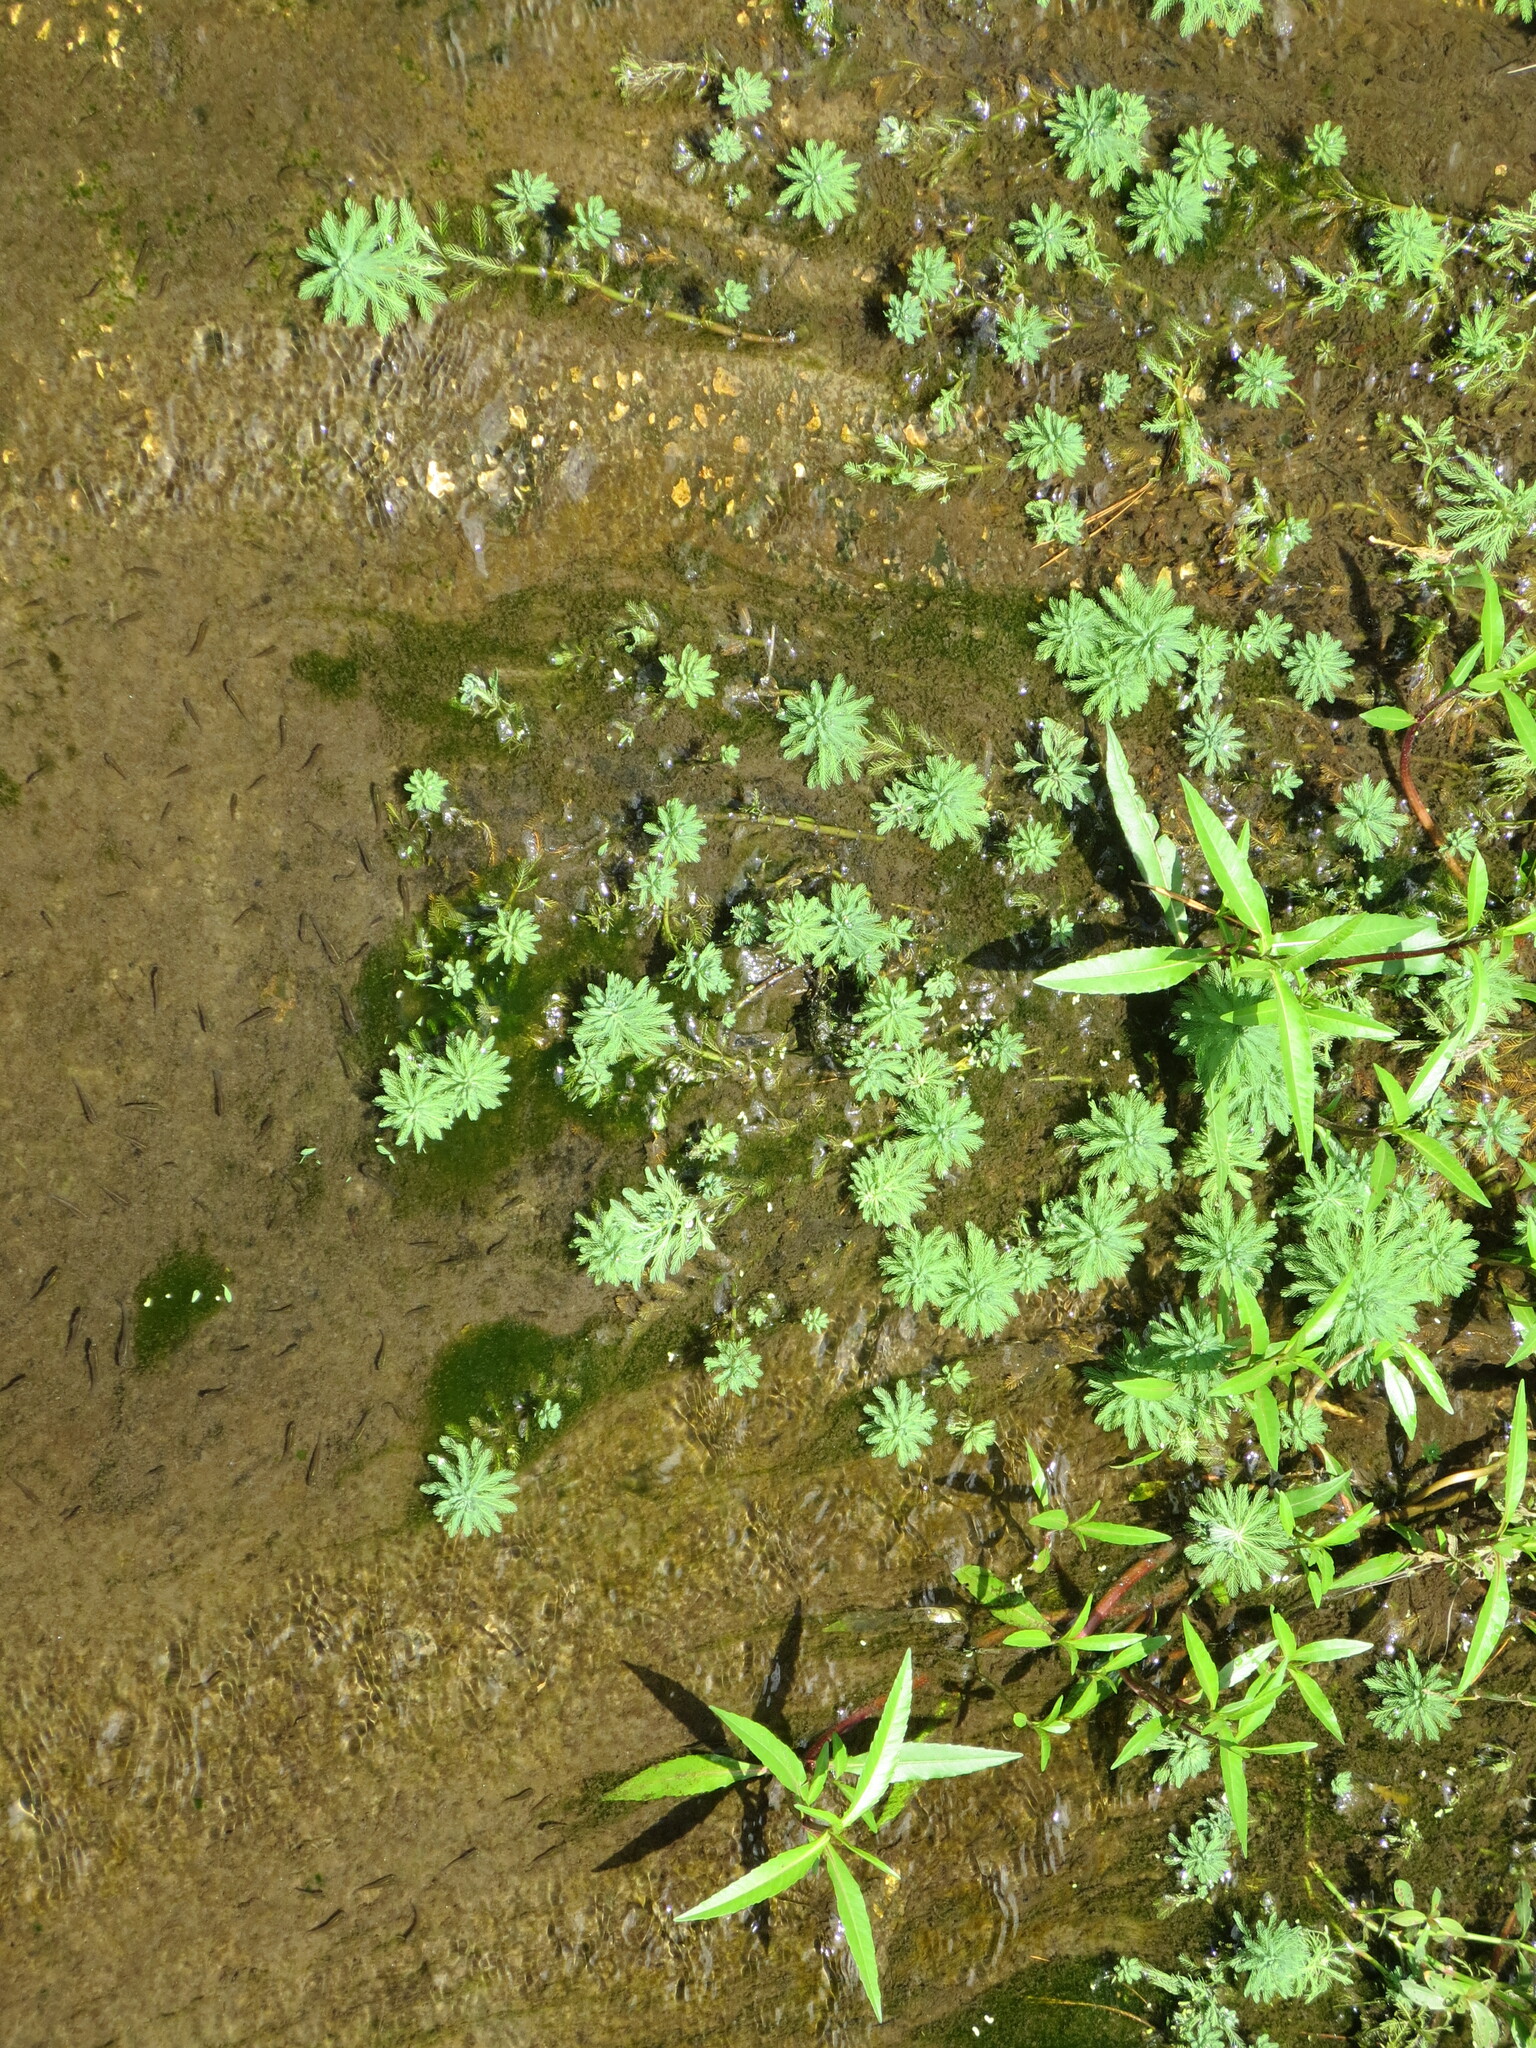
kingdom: Plantae
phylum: Tracheophyta
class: Magnoliopsida
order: Saxifragales
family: Haloragaceae
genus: Myriophyllum
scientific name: Myriophyllum aquaticum
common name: Parrot's feather
